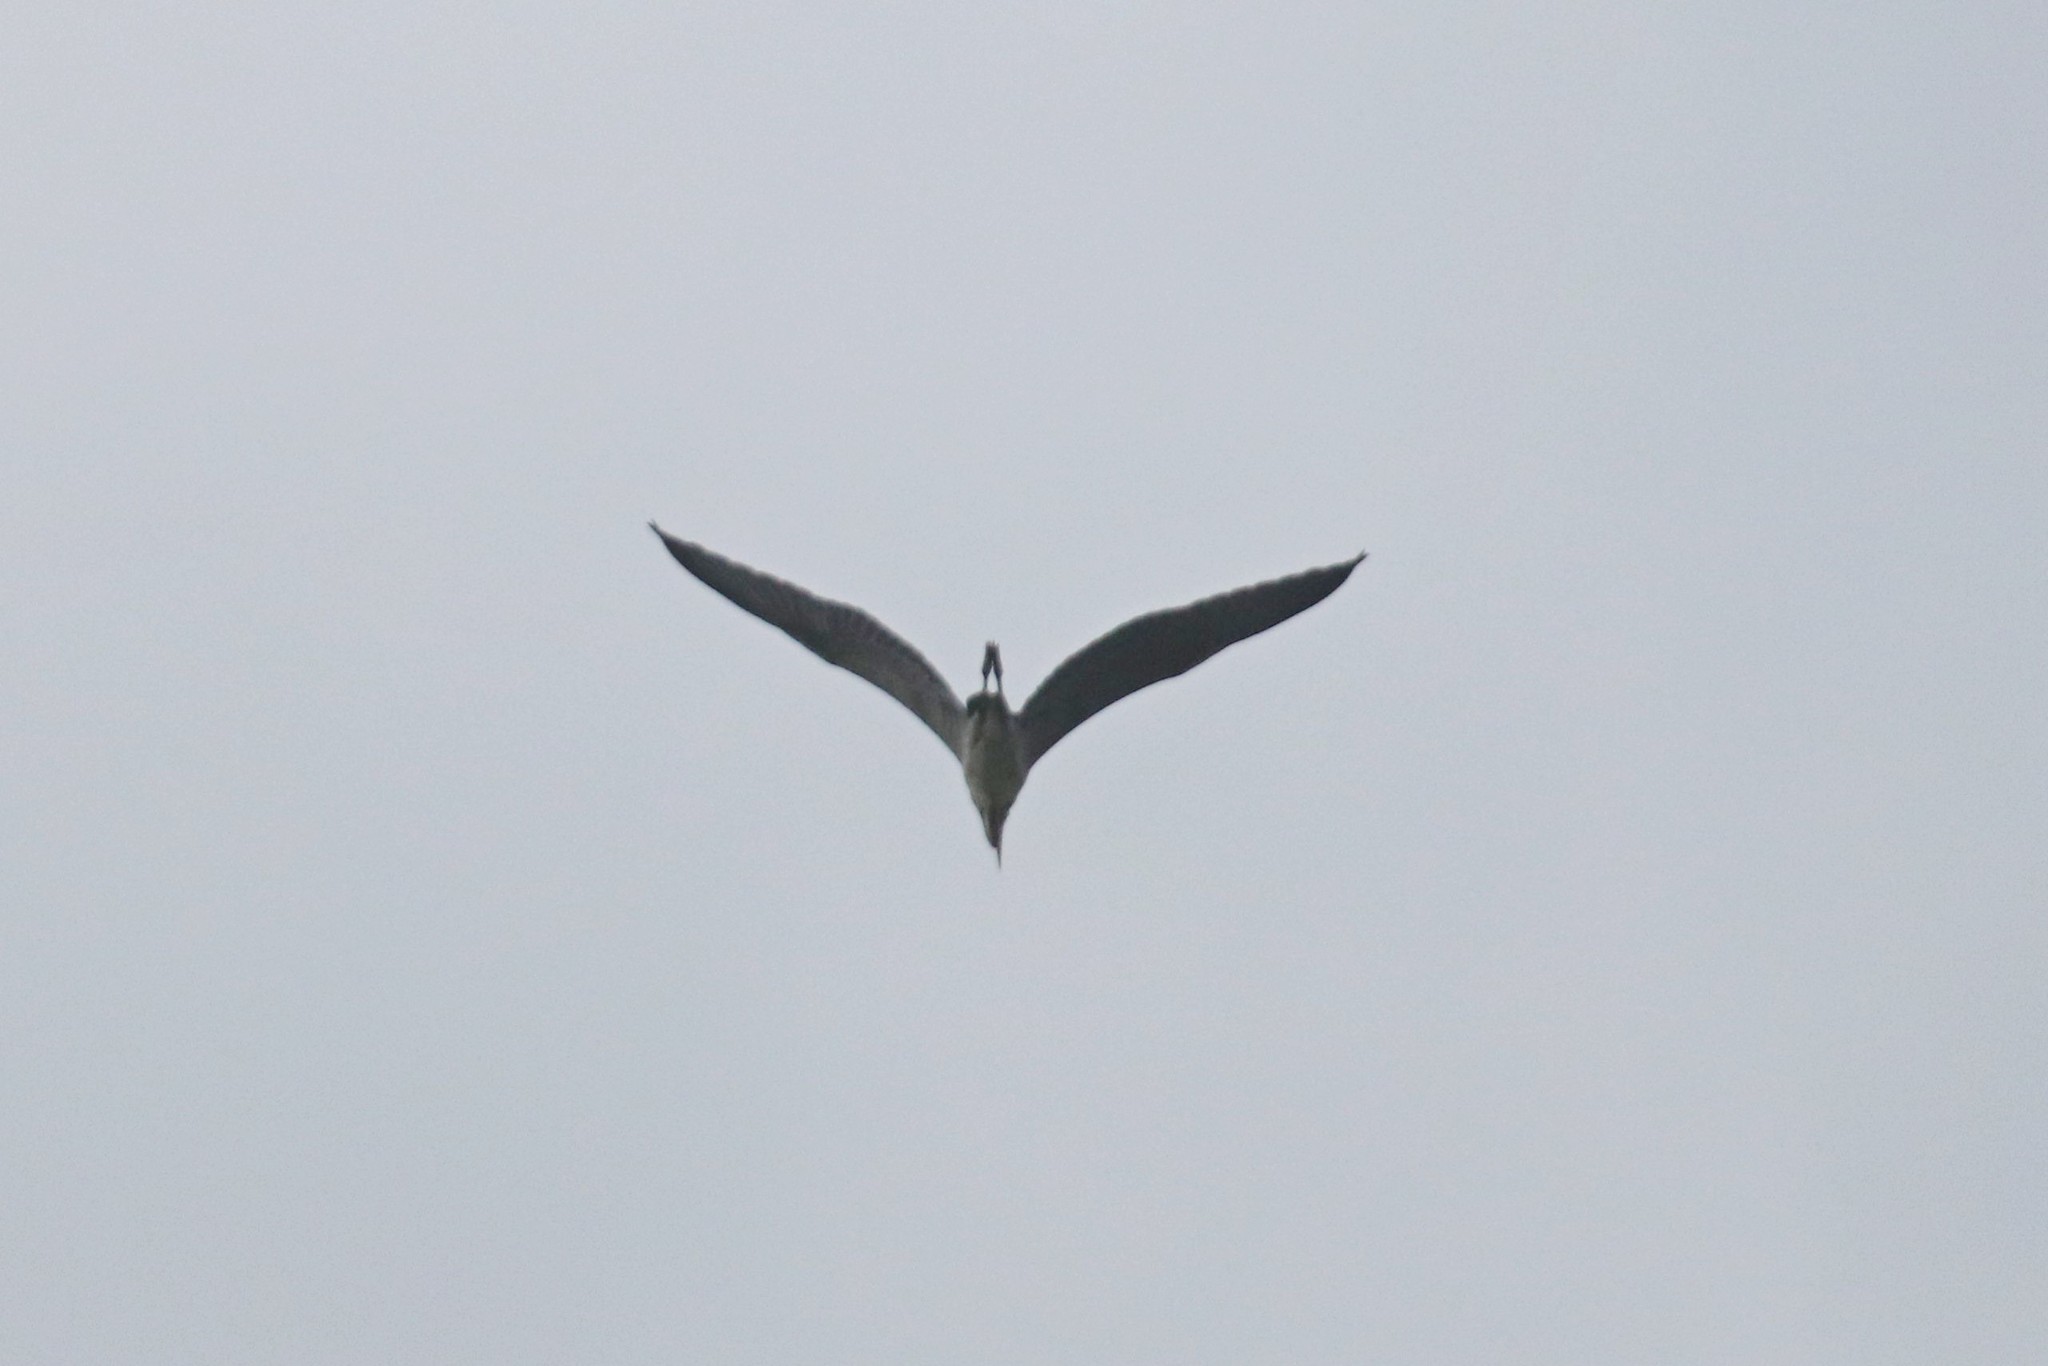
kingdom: Animalia
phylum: Chordata
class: Aves
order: Pelecaniformes
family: Ardeidae
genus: Ardea
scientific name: Ardea cinerea
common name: Grey heron
